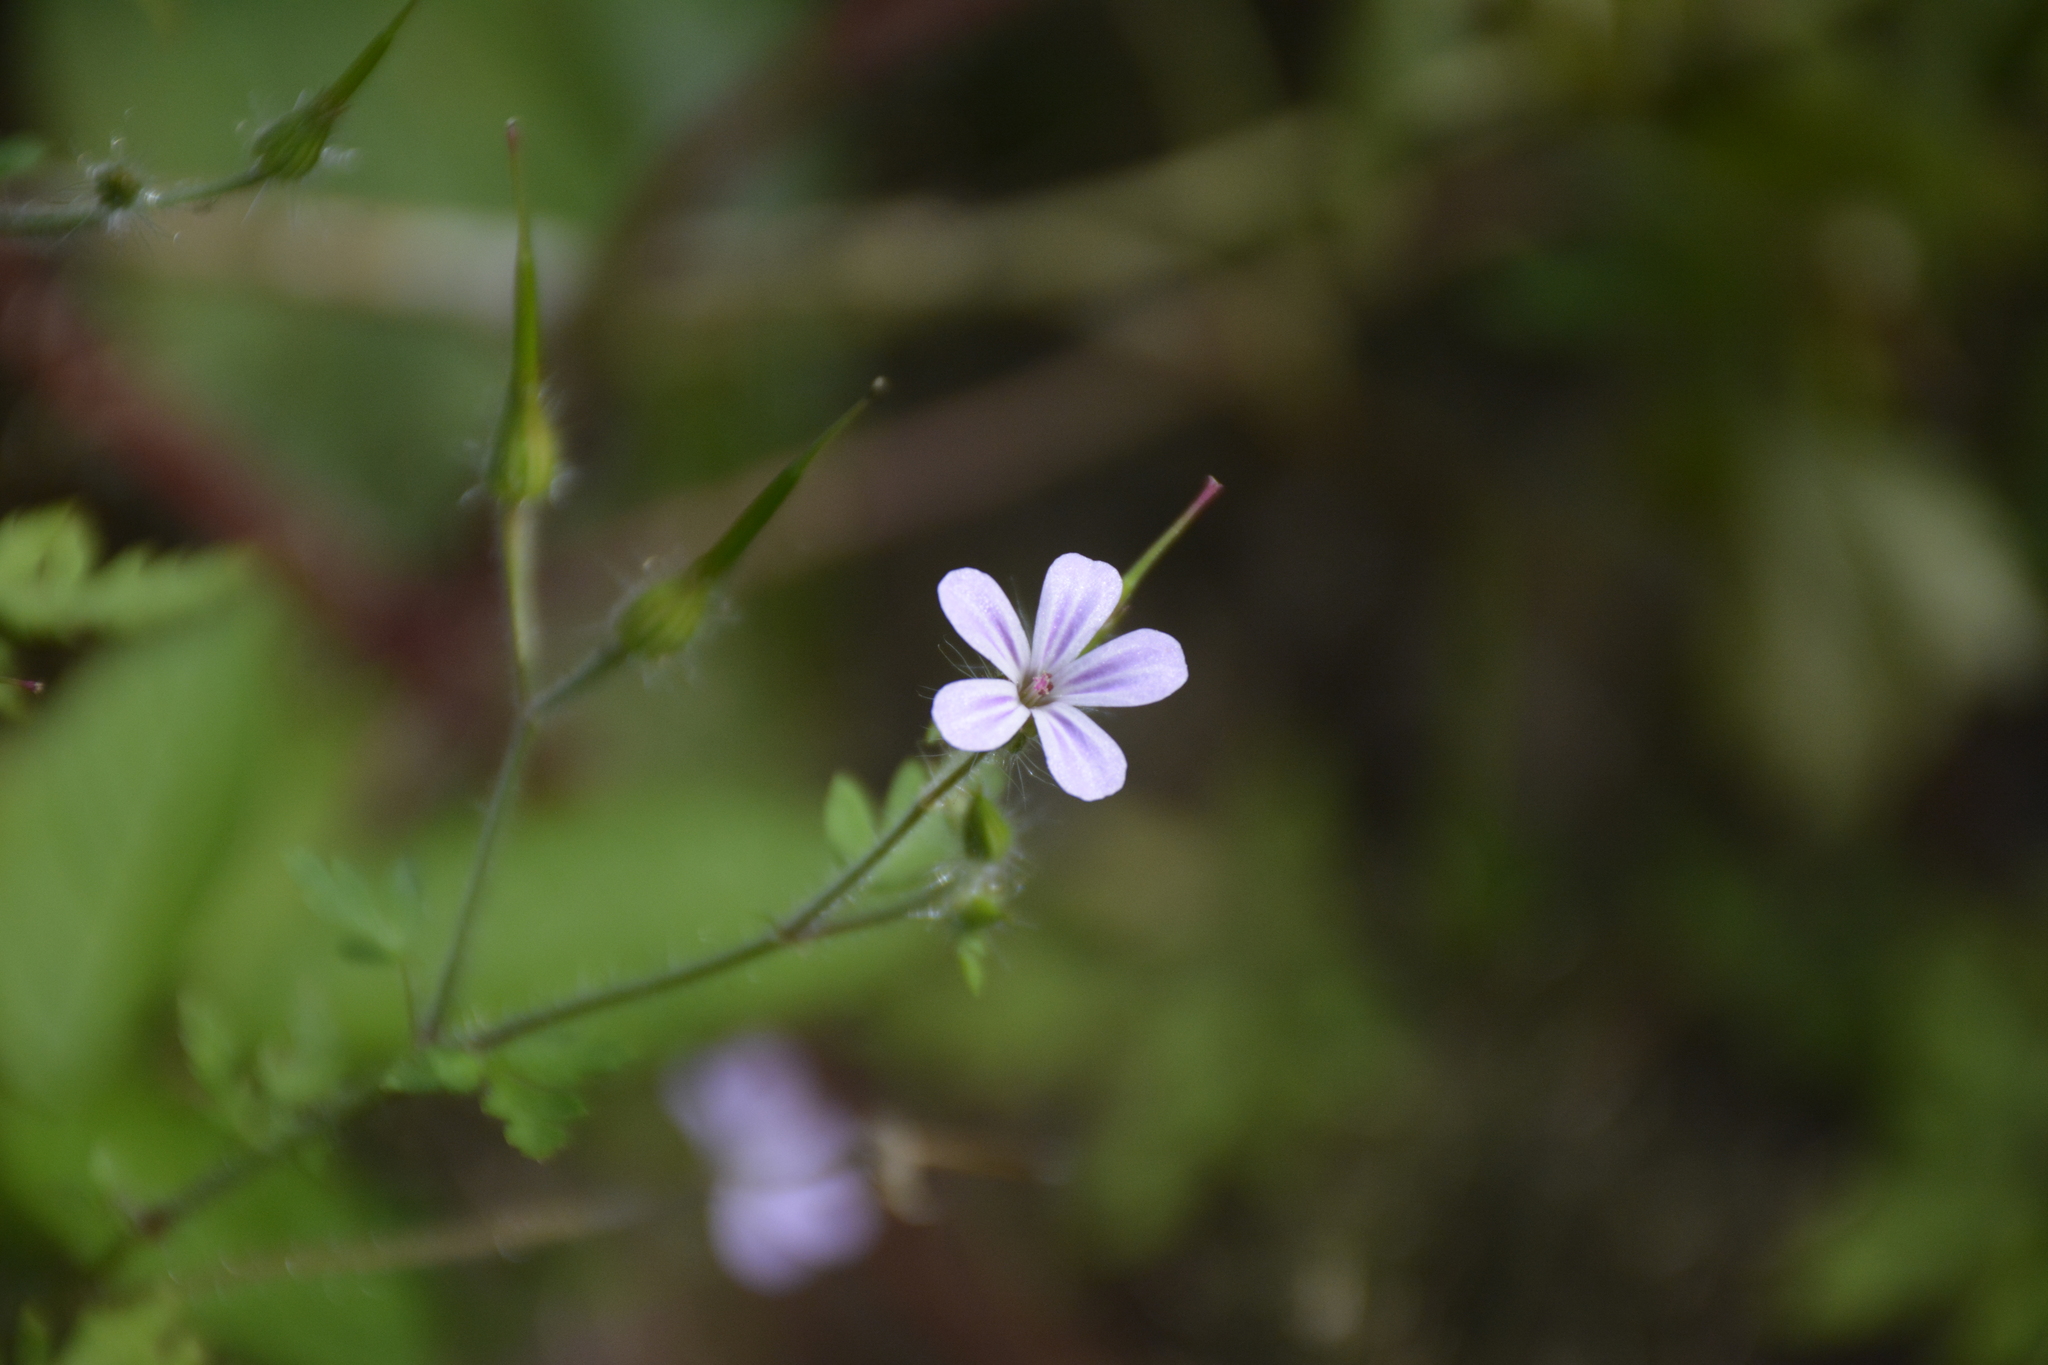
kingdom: Plantae
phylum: Tracheophyta
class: Magnoliopsida
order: Geraniales
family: Geraniaceae
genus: Geranium
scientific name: Geranium robertianum
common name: Herb-robert
